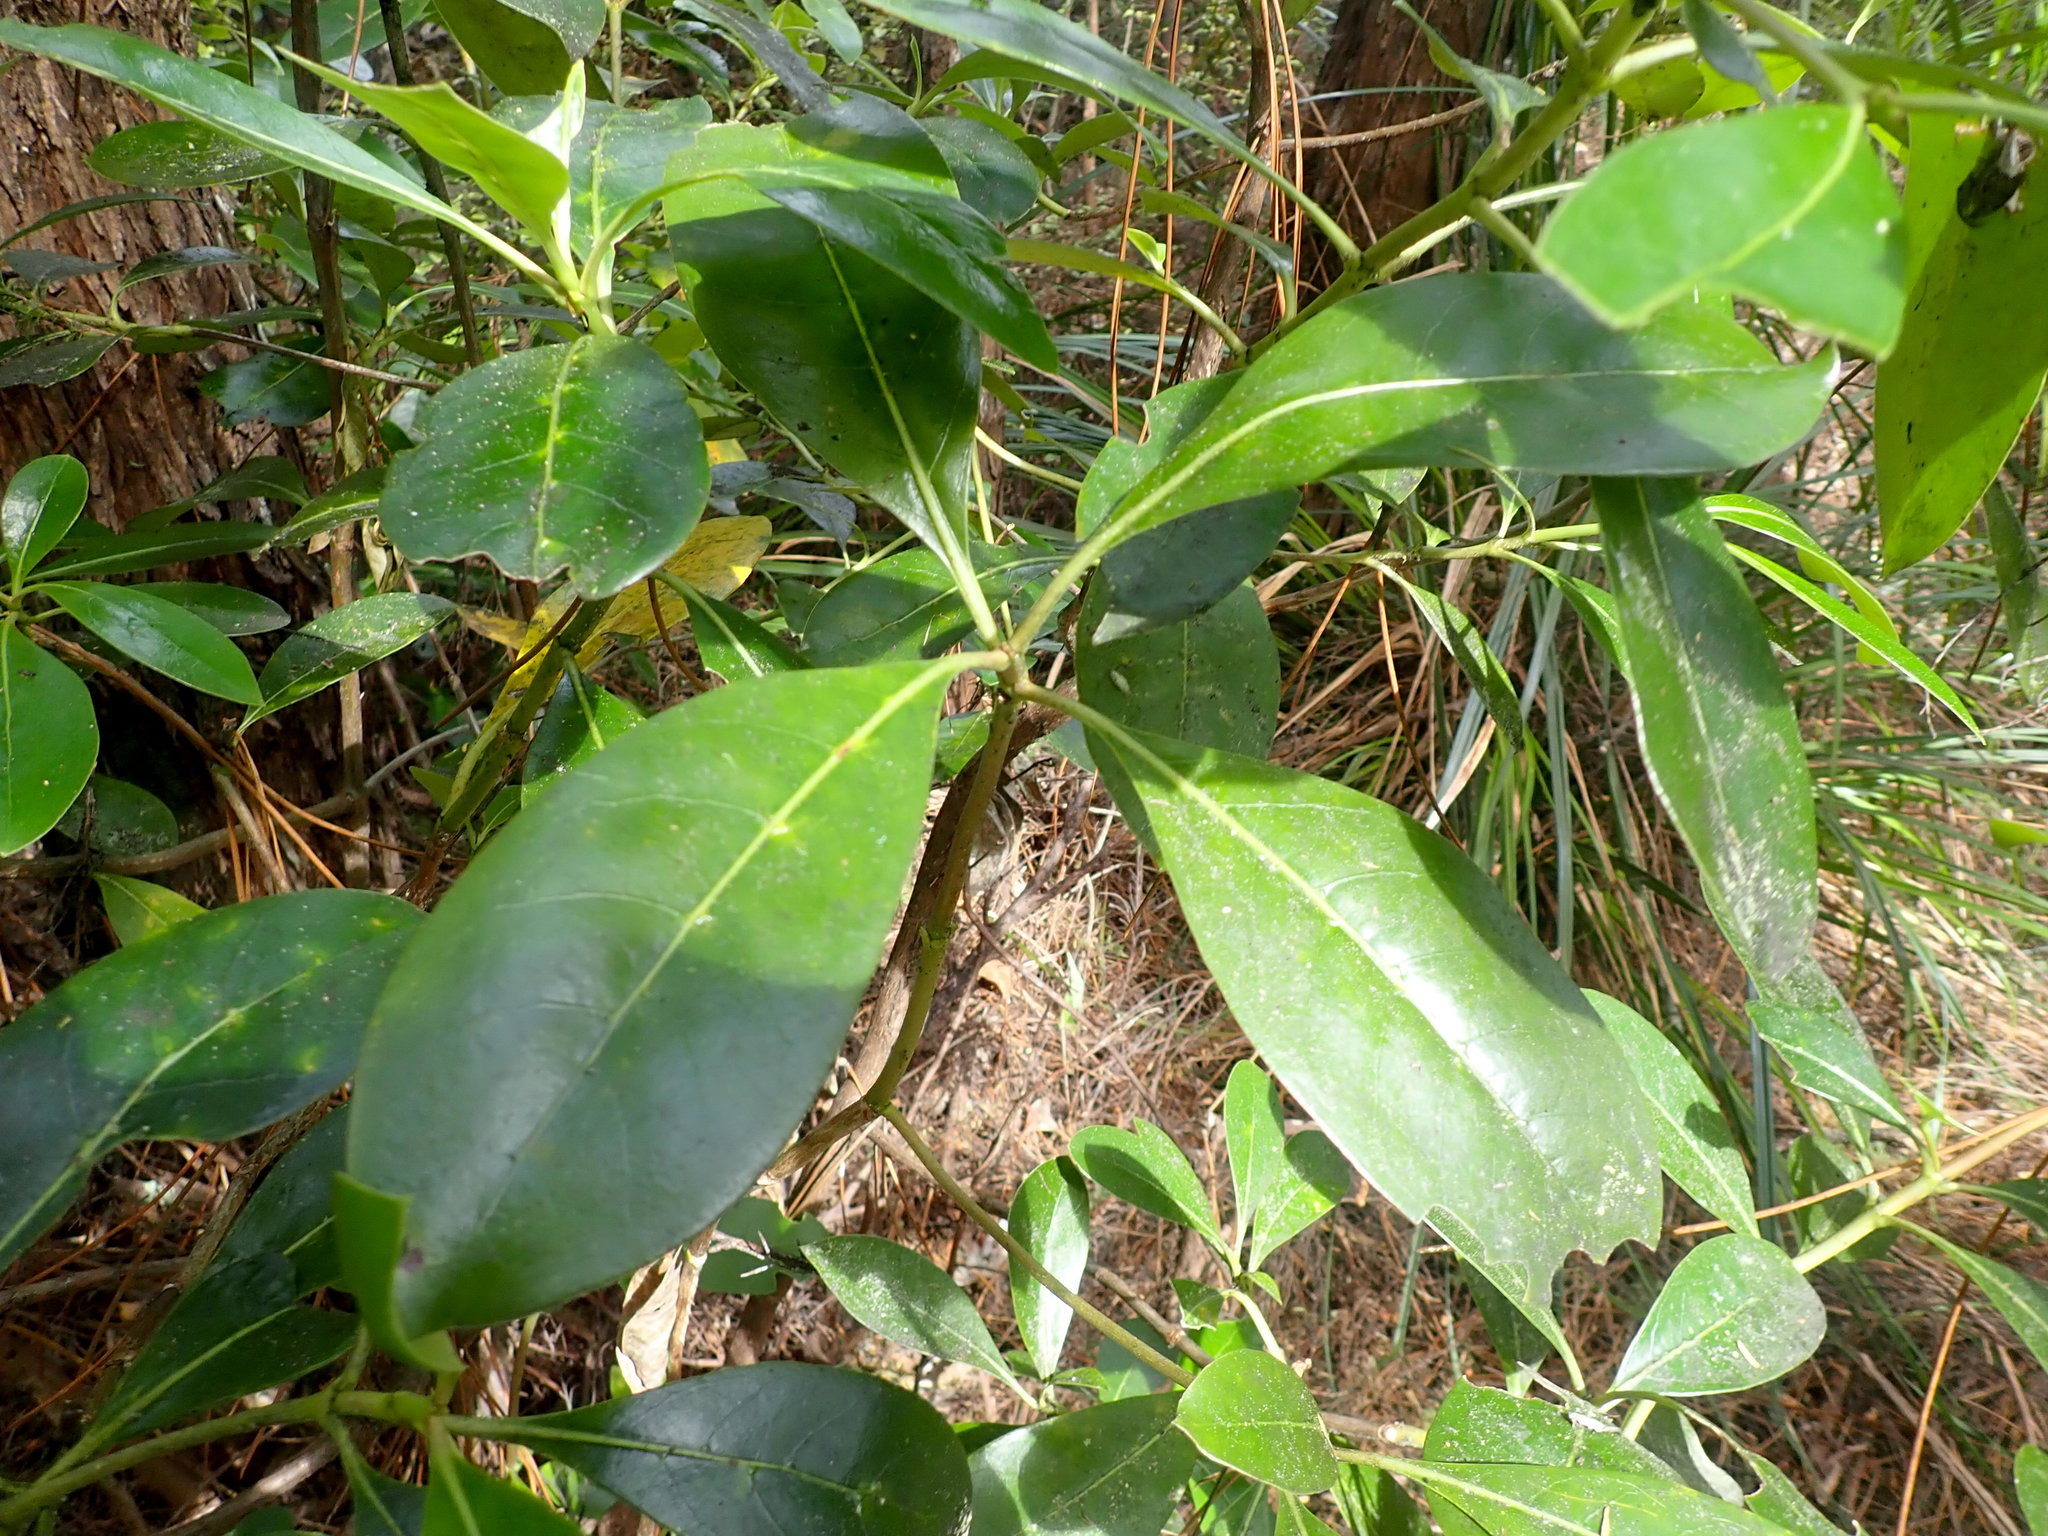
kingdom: Plantae
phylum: Tracheophyta
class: Magnoliopsida
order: Gentianales
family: Rubiaceae
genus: Coprosma
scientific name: Coprosma lucida
